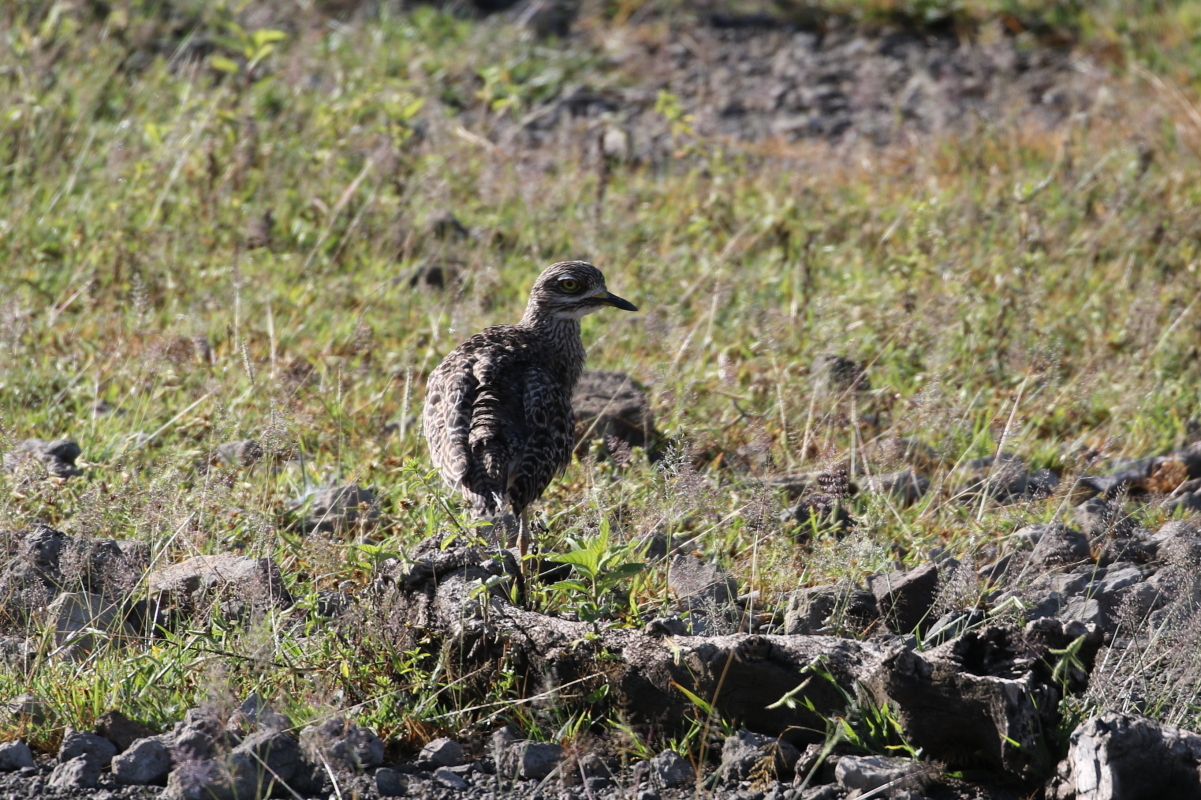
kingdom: Animalia
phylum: Chordata
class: Aves
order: Charadriiformes
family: Burhinidae
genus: Burhinus
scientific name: Burhinus capensis
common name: Spotted thick-knee
